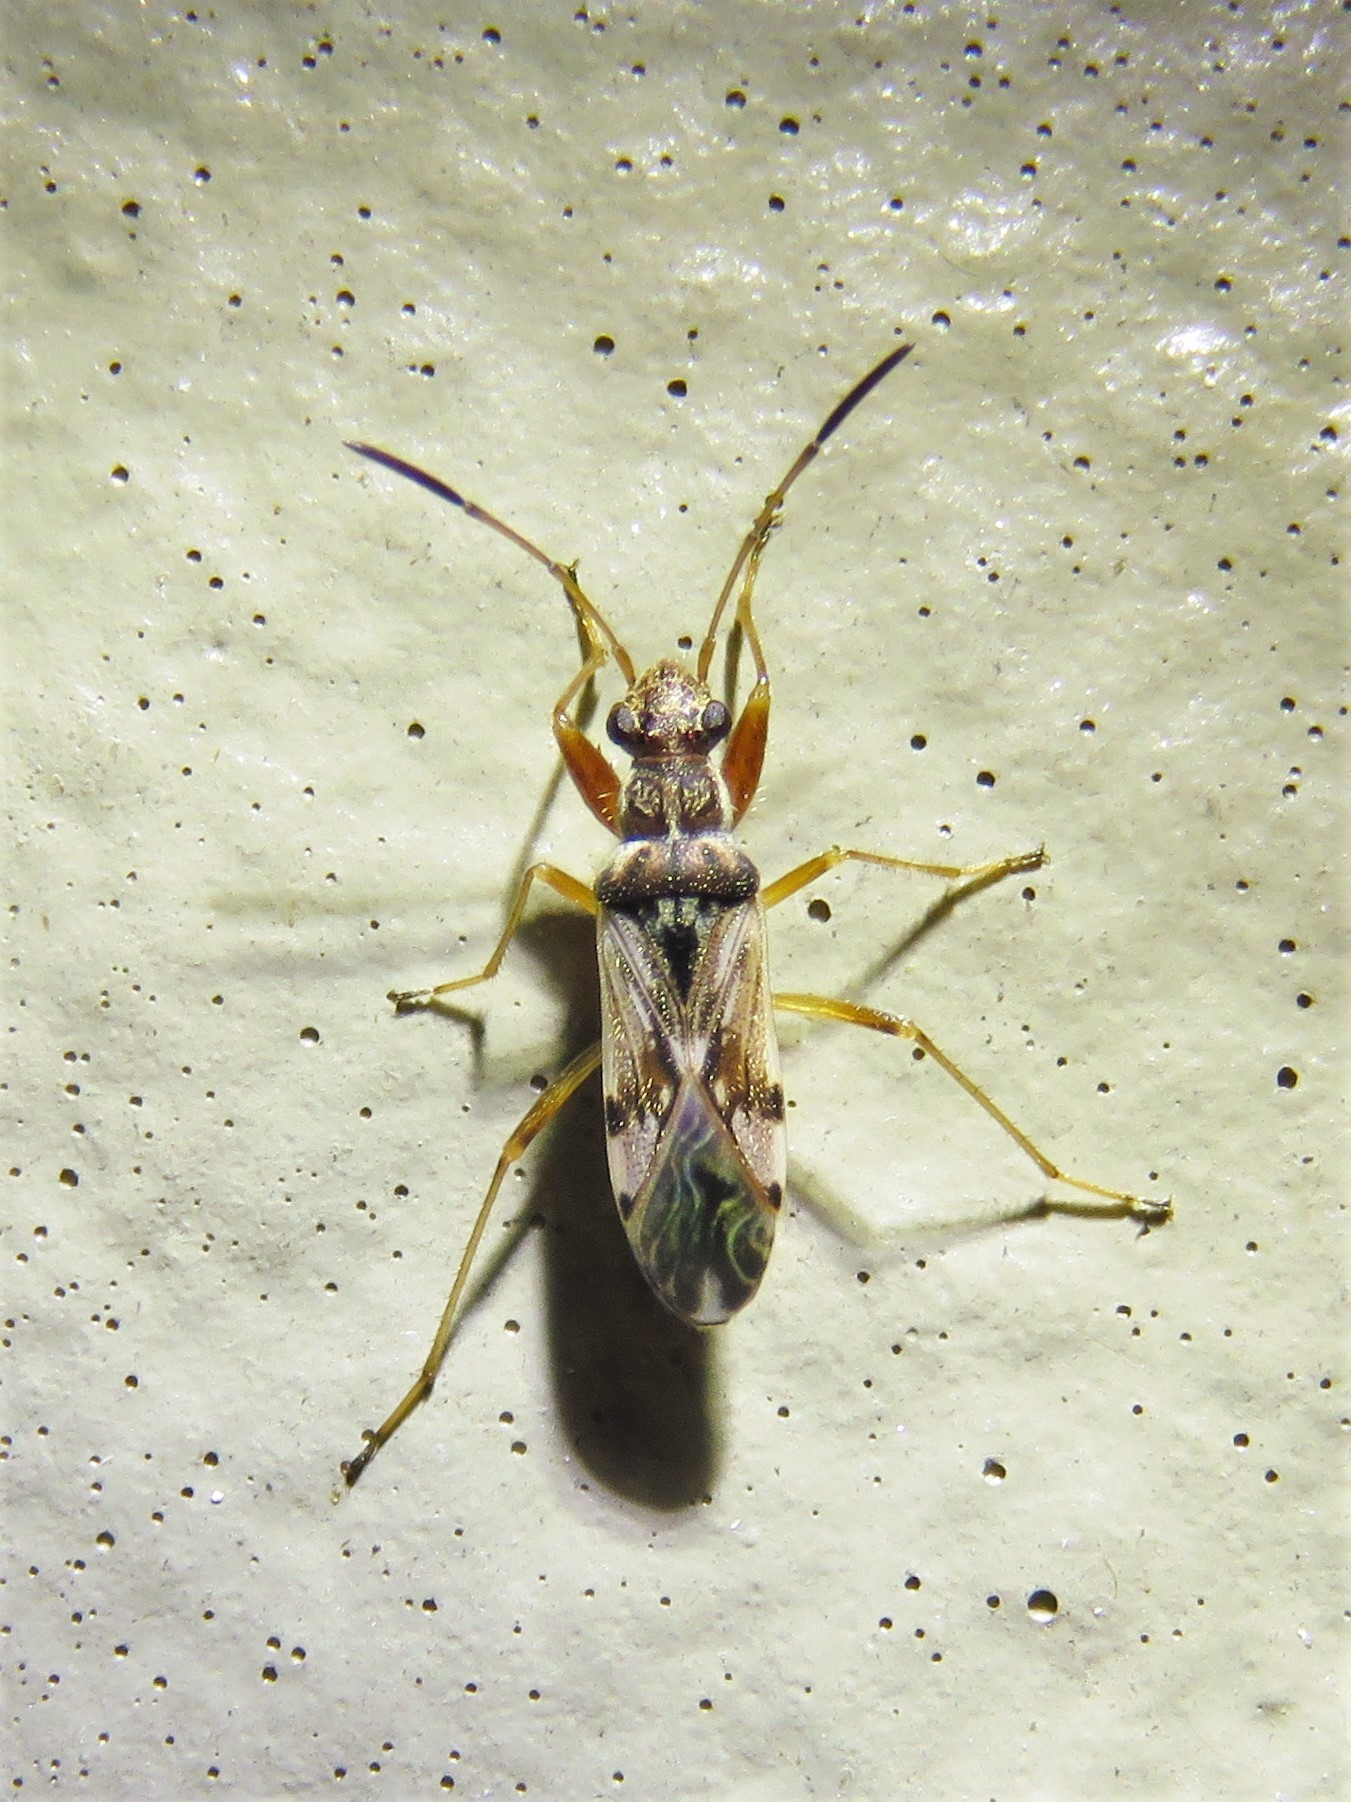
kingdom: Animalia
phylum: Arthropoda
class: Insecta
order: Hemiptera
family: Rhyparochromidae
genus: Neopamera
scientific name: Neopamera bilobata
